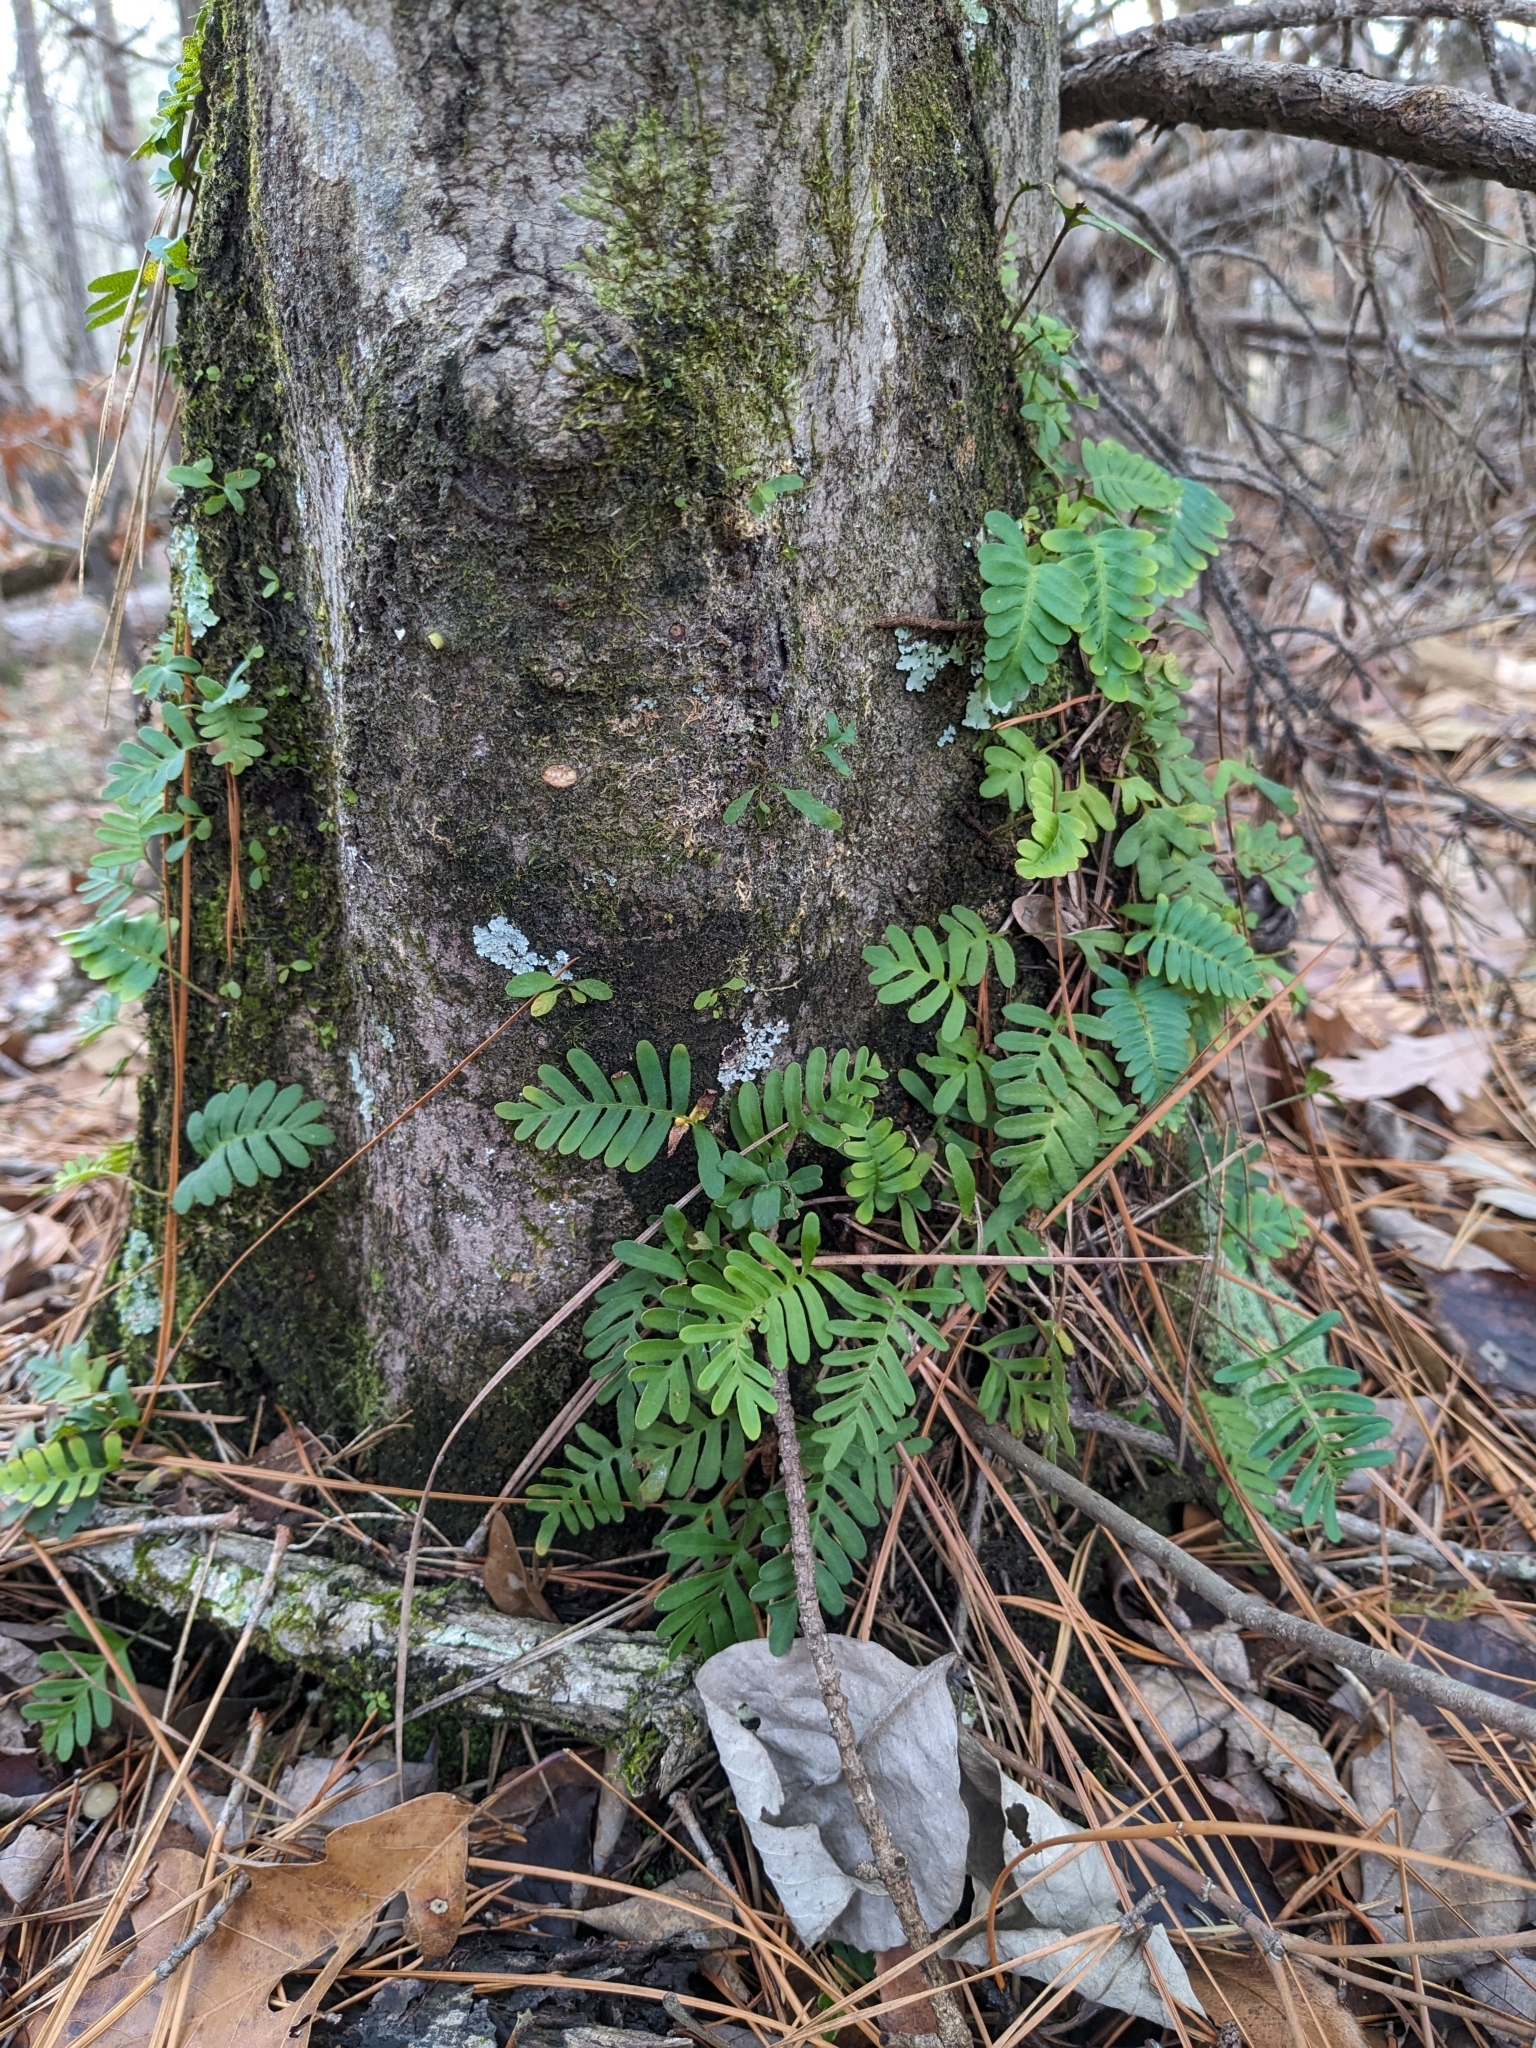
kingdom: Plantae
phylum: Tracheophyta
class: Polypodiopsida
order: Polypodiales
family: Polypodiaceae
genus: Pleopeltis
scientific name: Pleopeltis michauxiana
